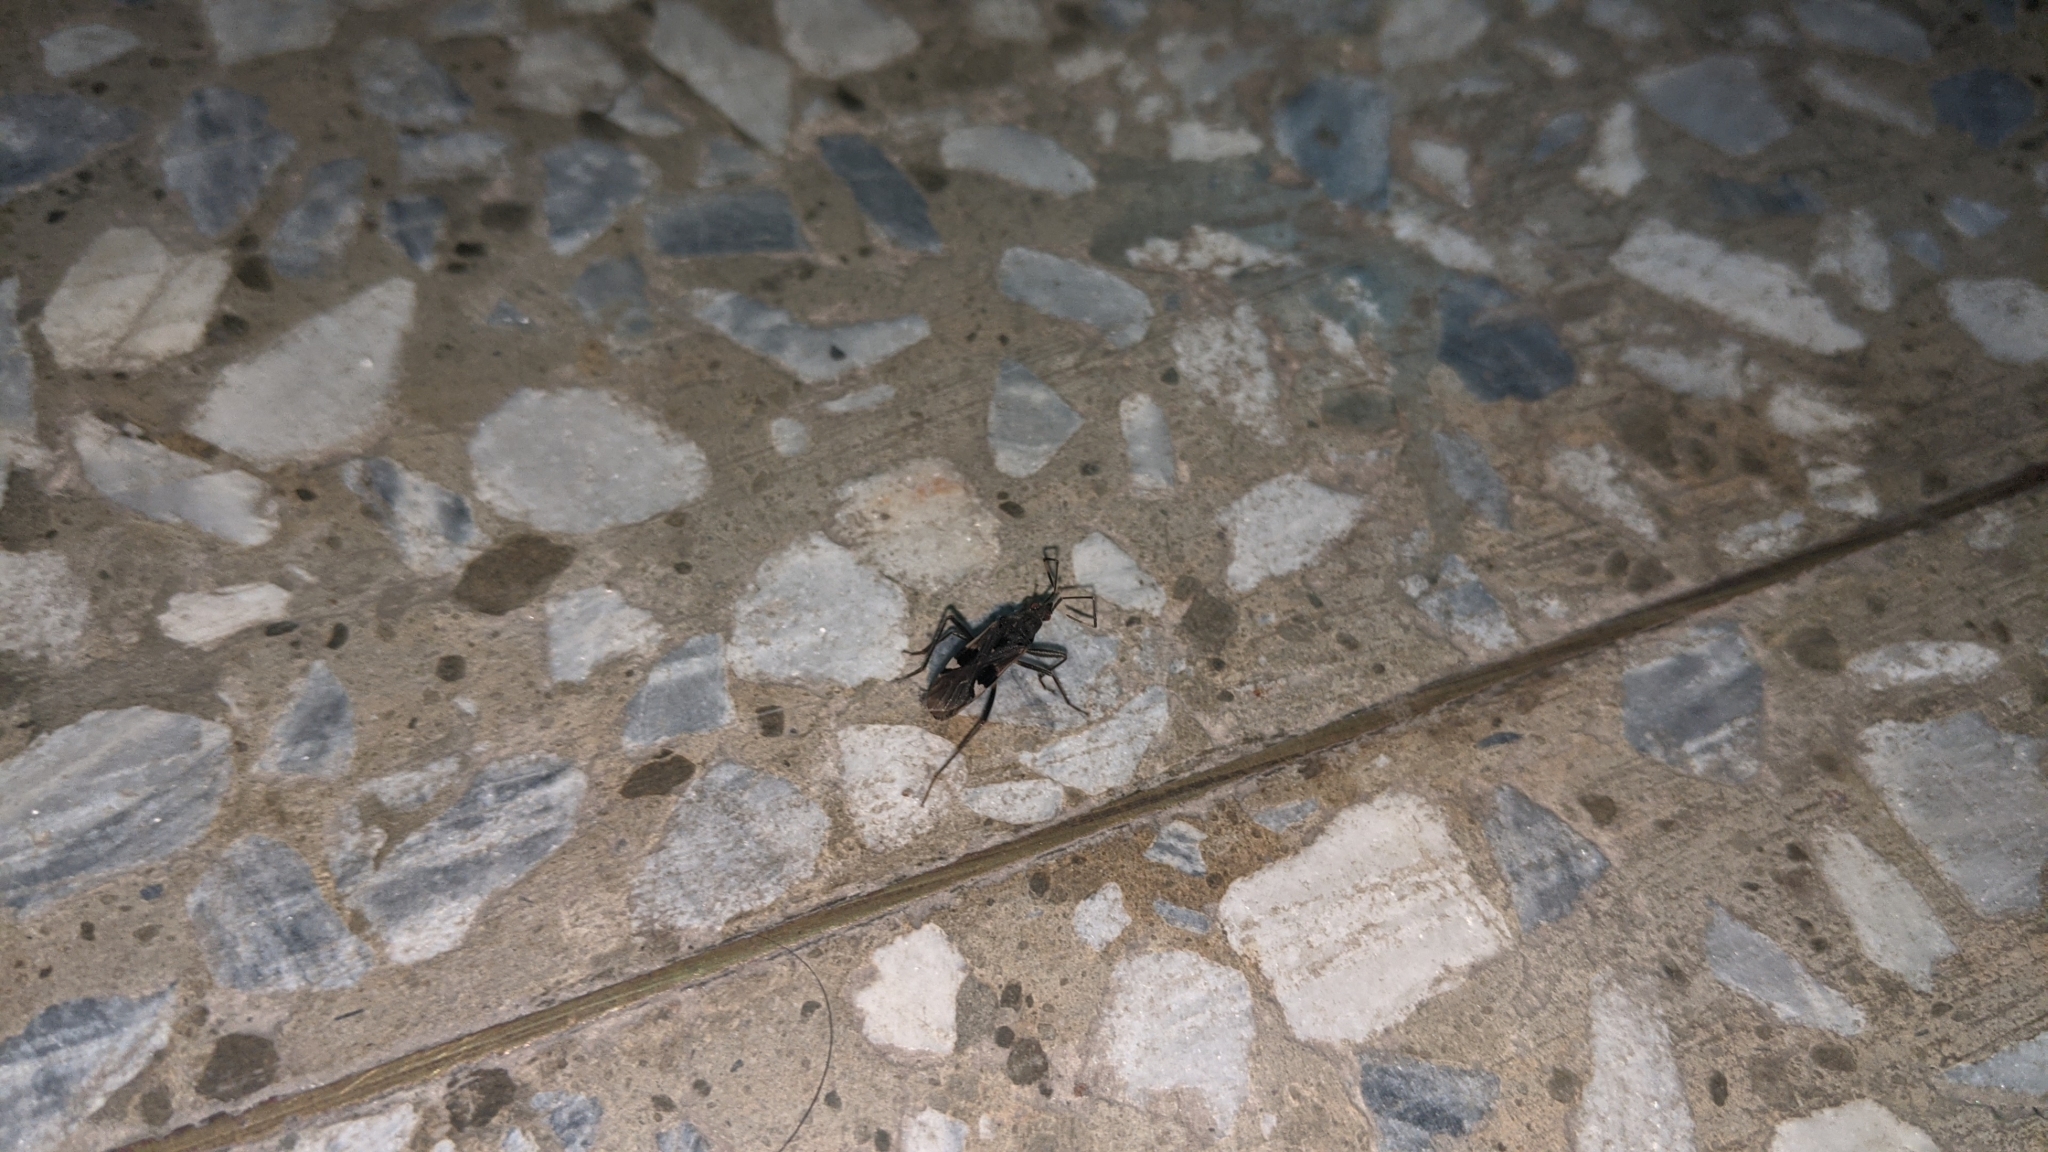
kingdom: Animalia
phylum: Arthropoda
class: Insecta
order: Hemiptera
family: Rhyparochromidae
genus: Metochus
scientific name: Metochus abbreviatus
